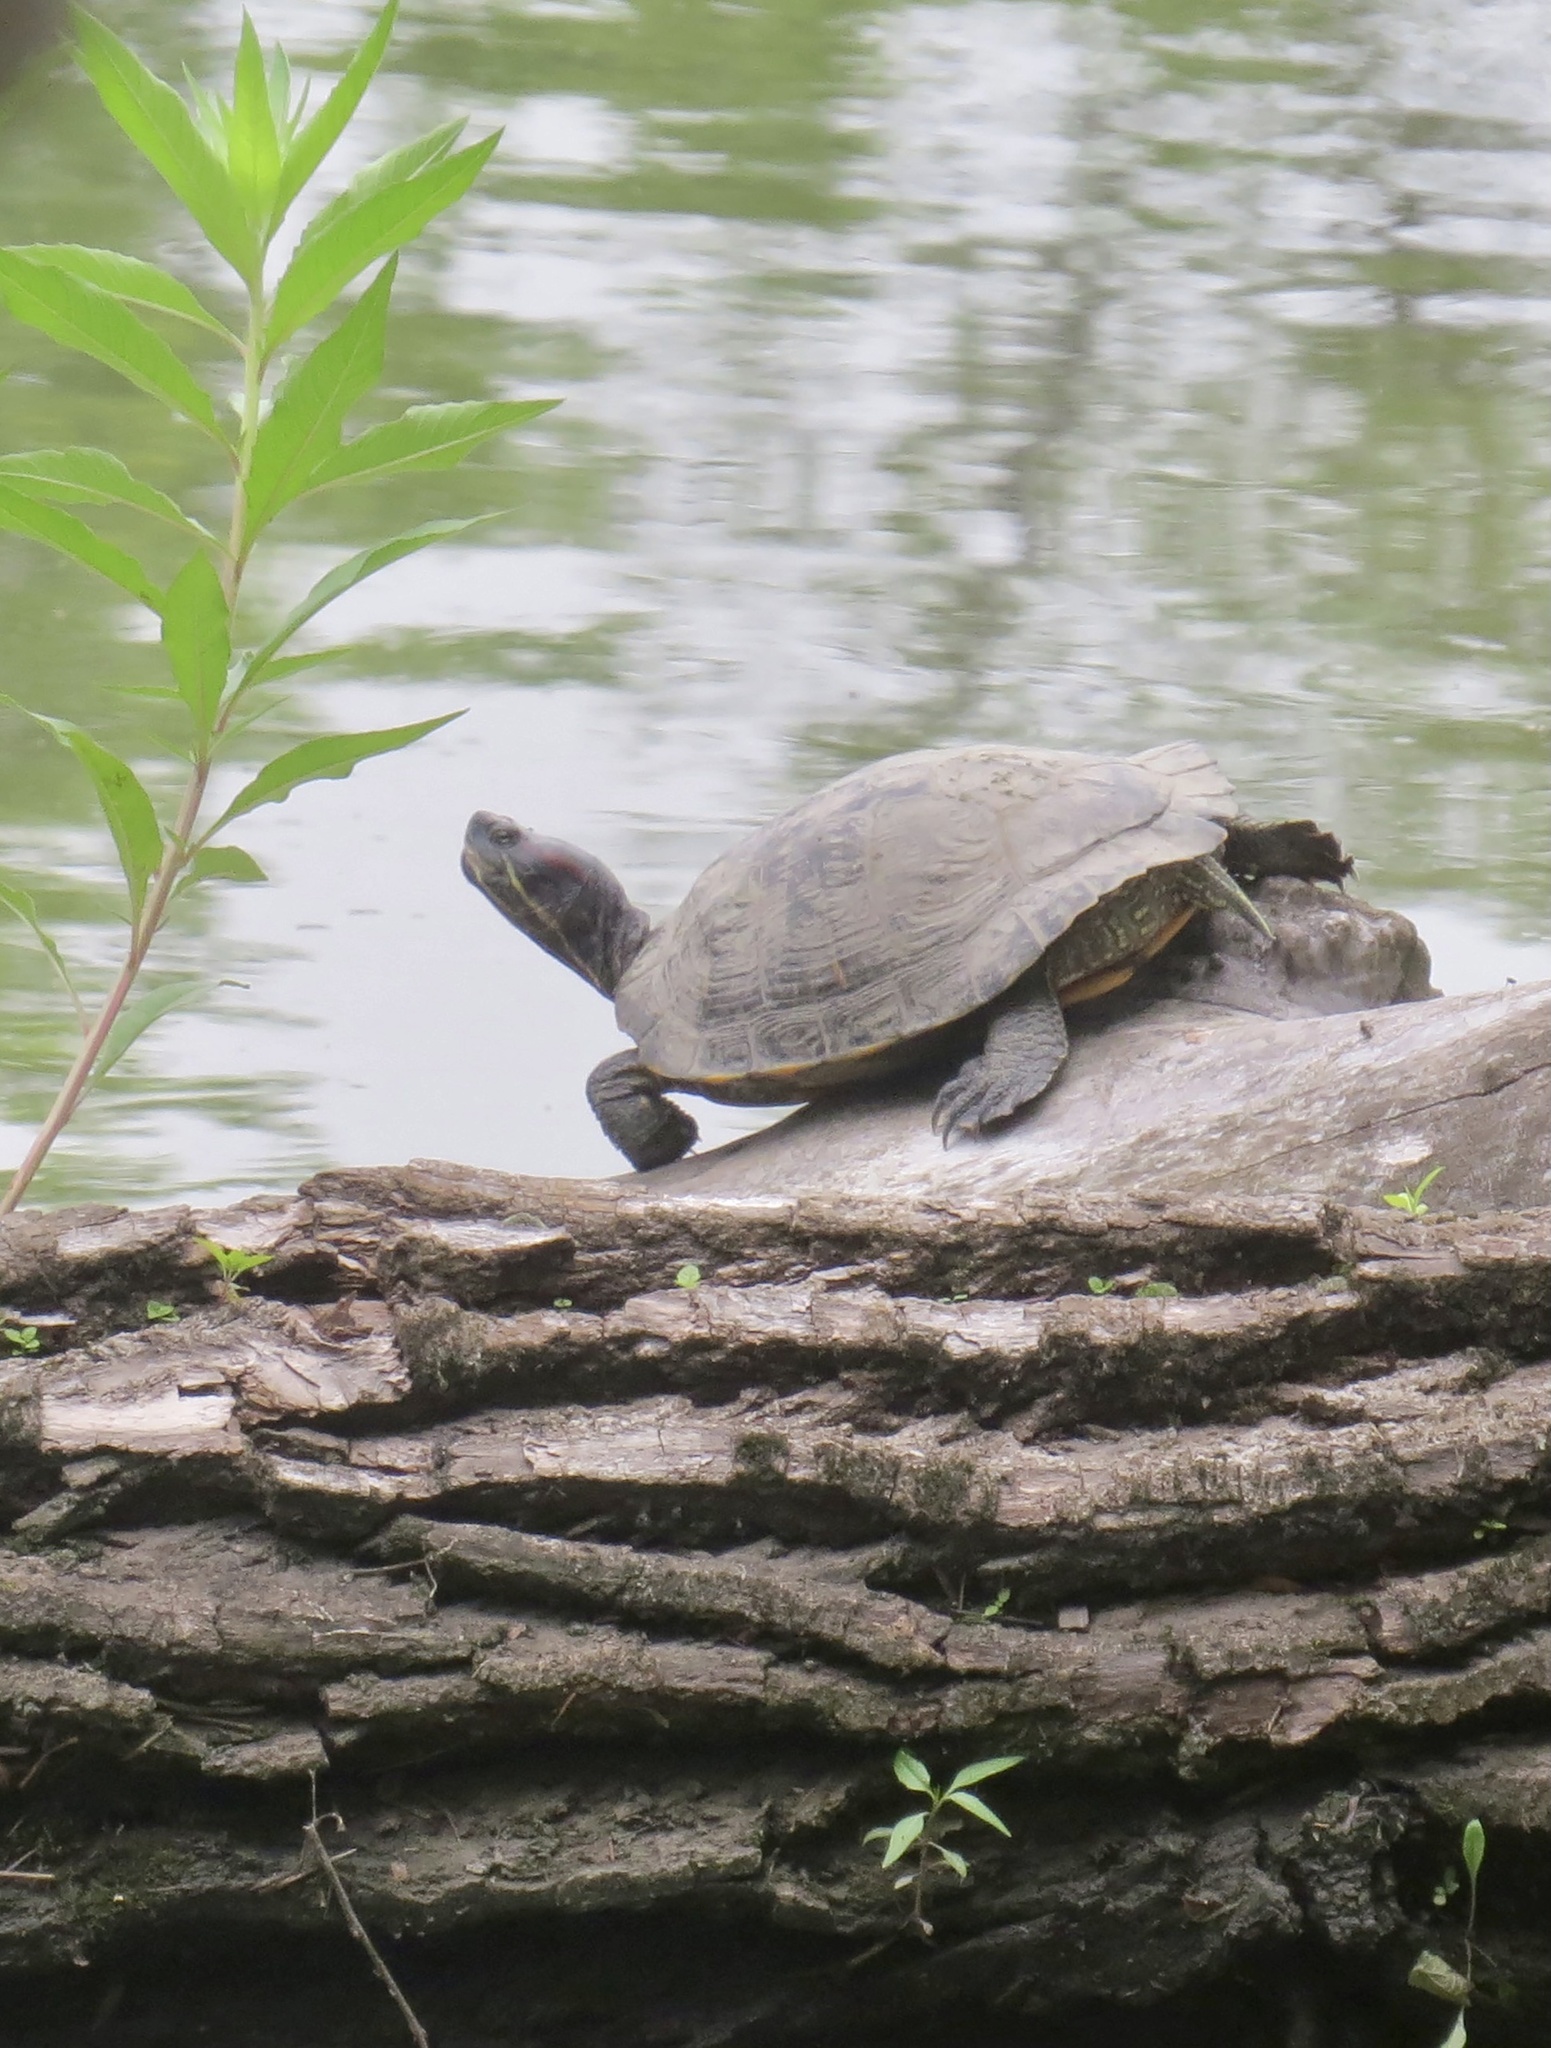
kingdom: Animalia
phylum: Chordata
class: Testudines
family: Emydidae
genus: Trachemys
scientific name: Trachemys scripta
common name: Slider
